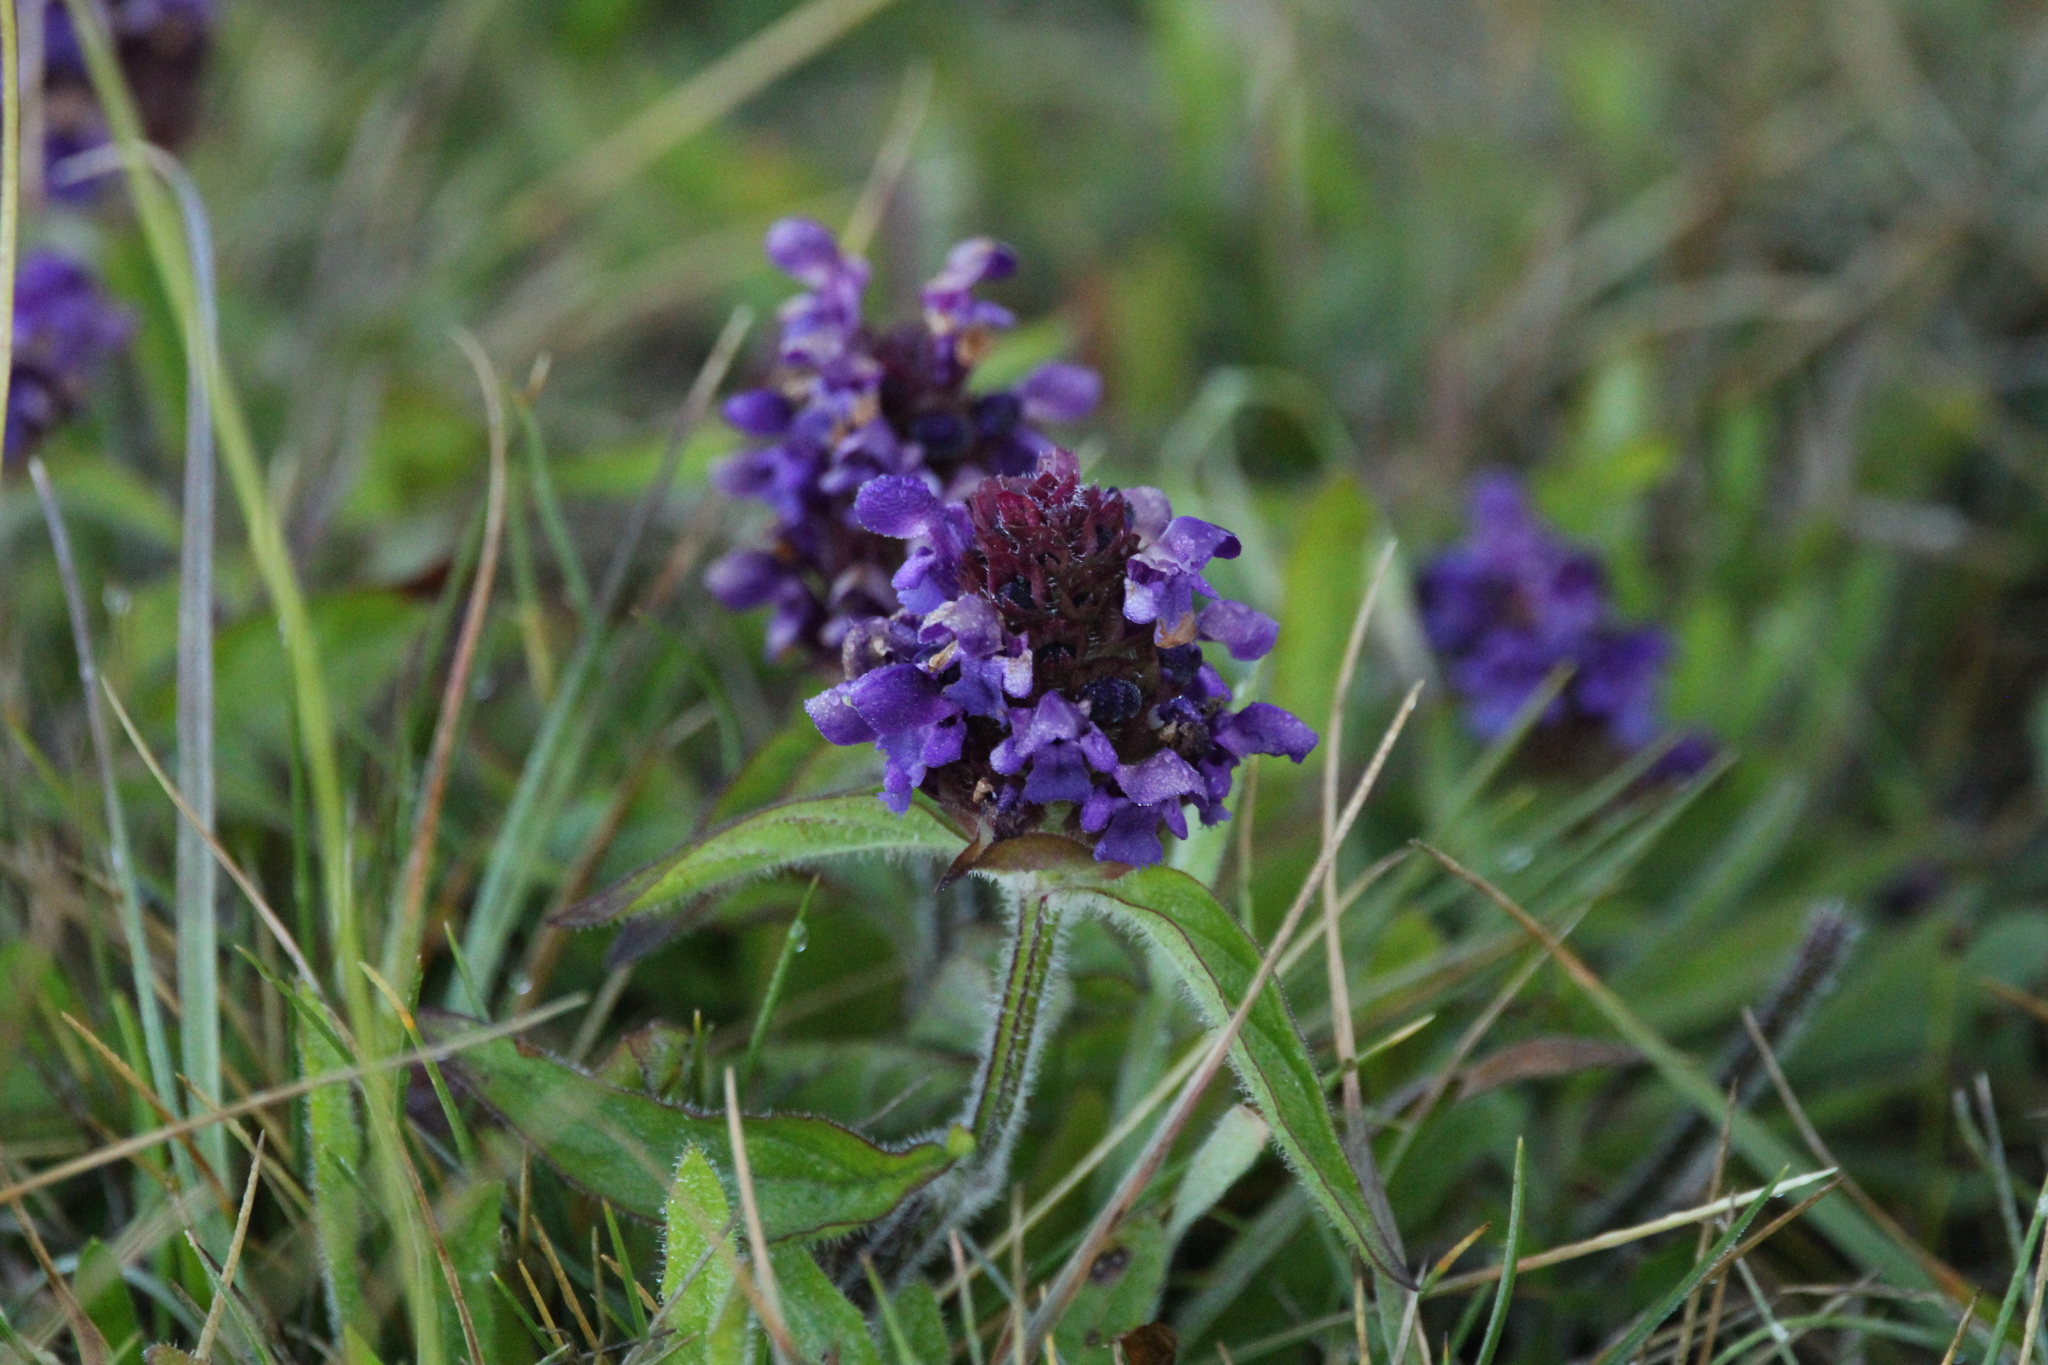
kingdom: Plantae
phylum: Tracheophyta
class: Magnoliopsida
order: Lamiales
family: Lamiaceae
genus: Prunella
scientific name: Prunella vulgaris
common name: Heal-all
